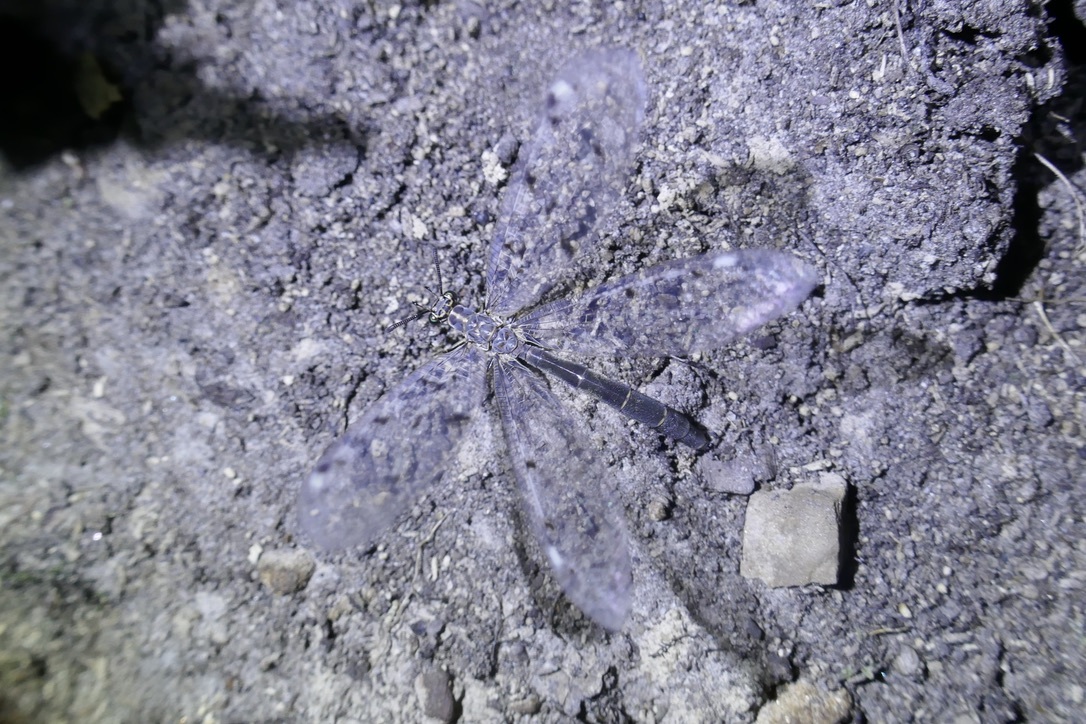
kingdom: Animalia
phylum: Arthropoda
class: Insecta
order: Neuroptera
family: Myrmeleontidae
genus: Euroleon
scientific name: Euroleon nostras
